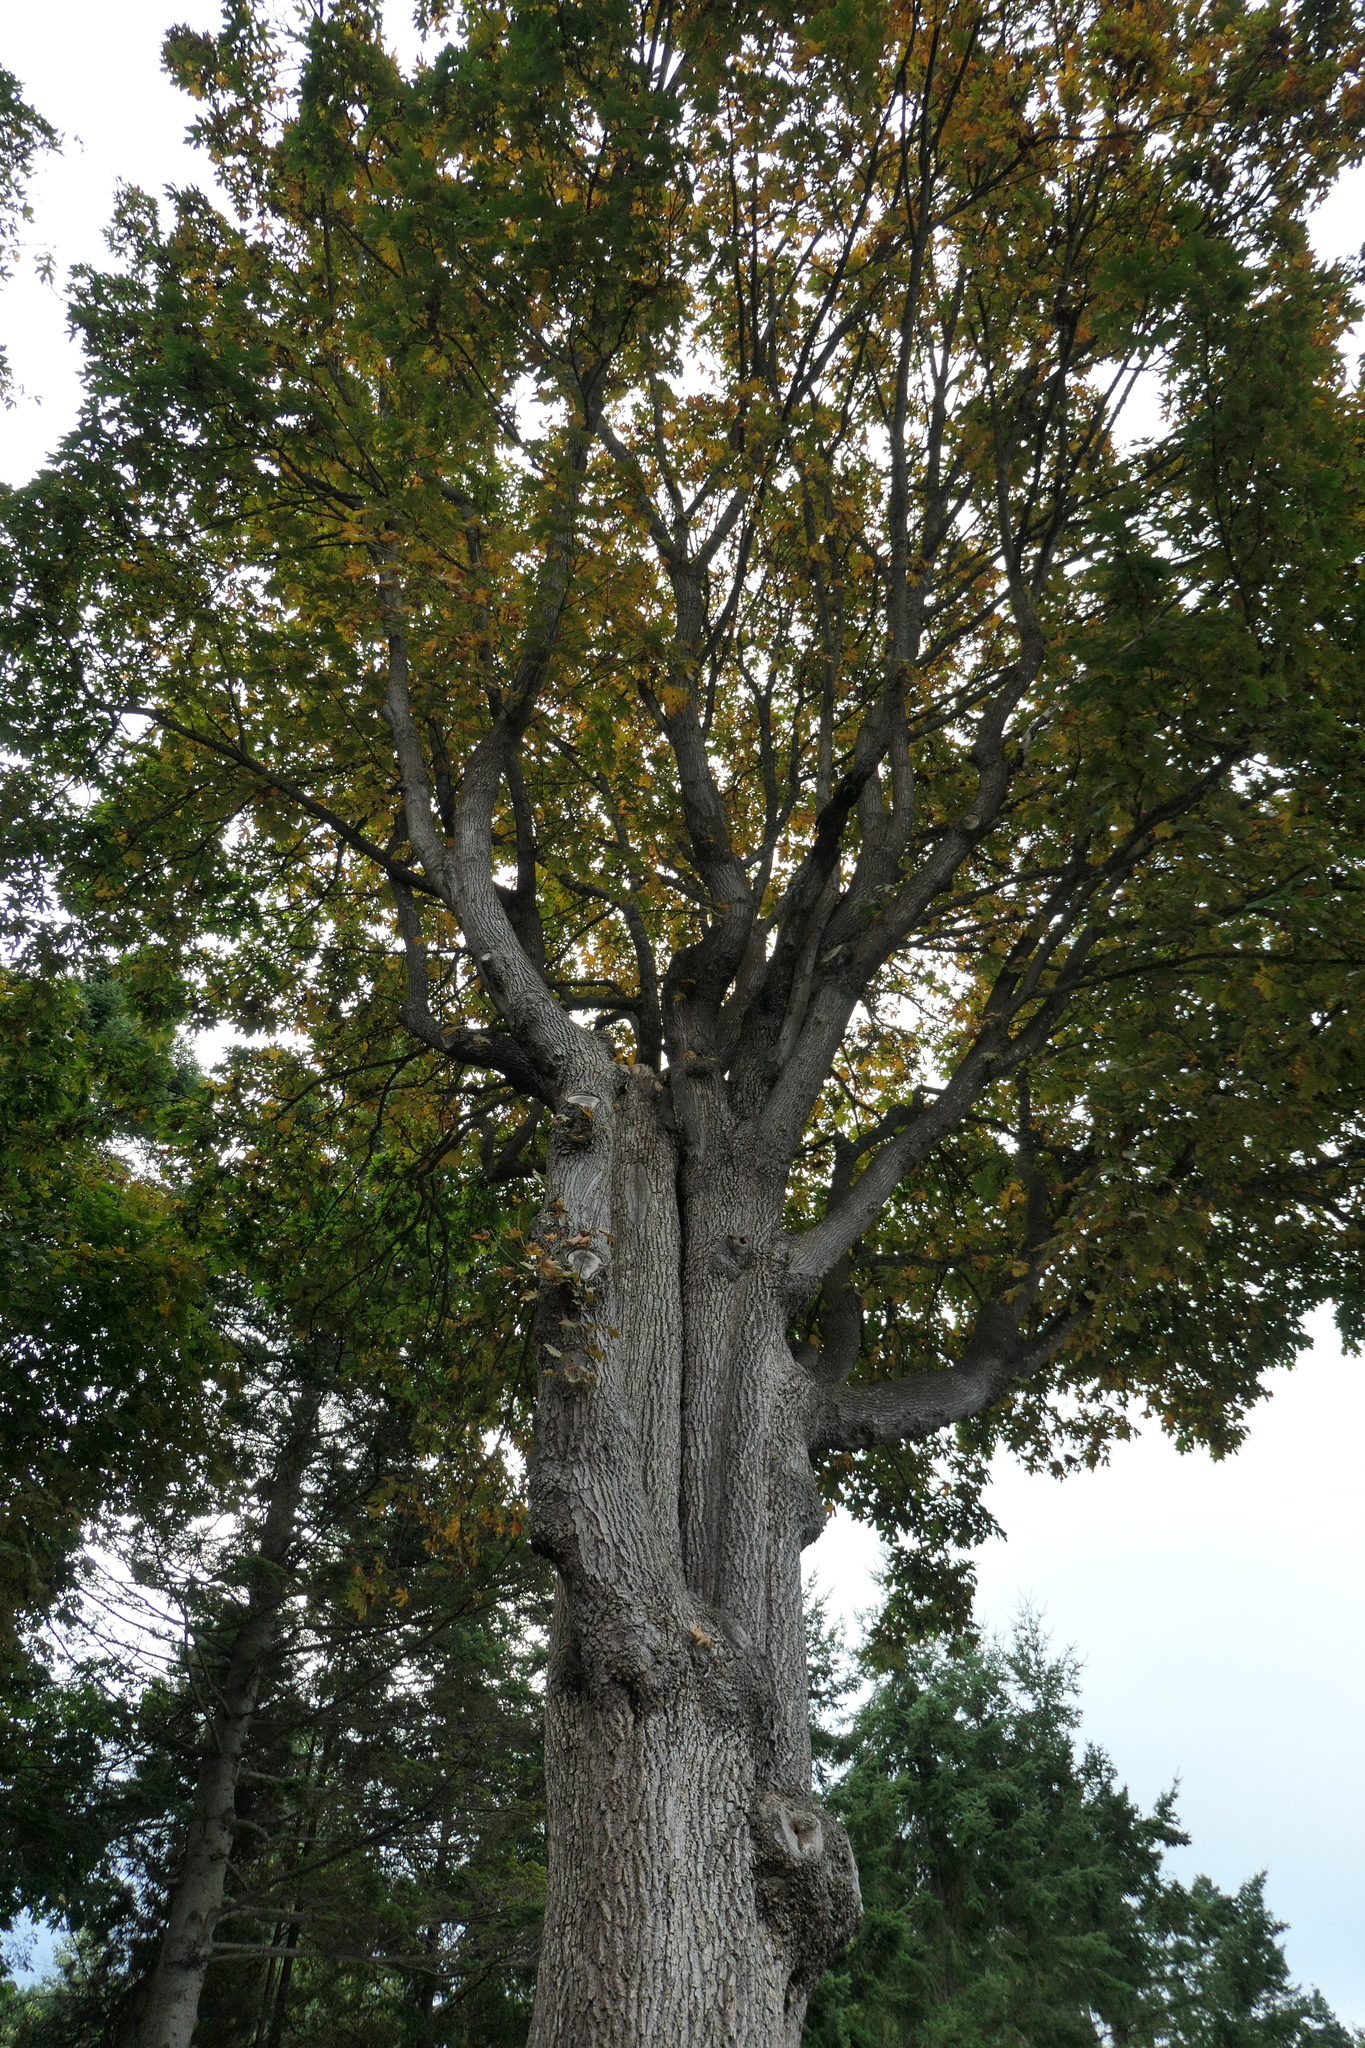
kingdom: Plantae
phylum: Tracheophyta
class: Magnoliopsida
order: Sapindales
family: Sapindaceae
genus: Acer
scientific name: Acer macrophyllum
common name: Oregon maple
